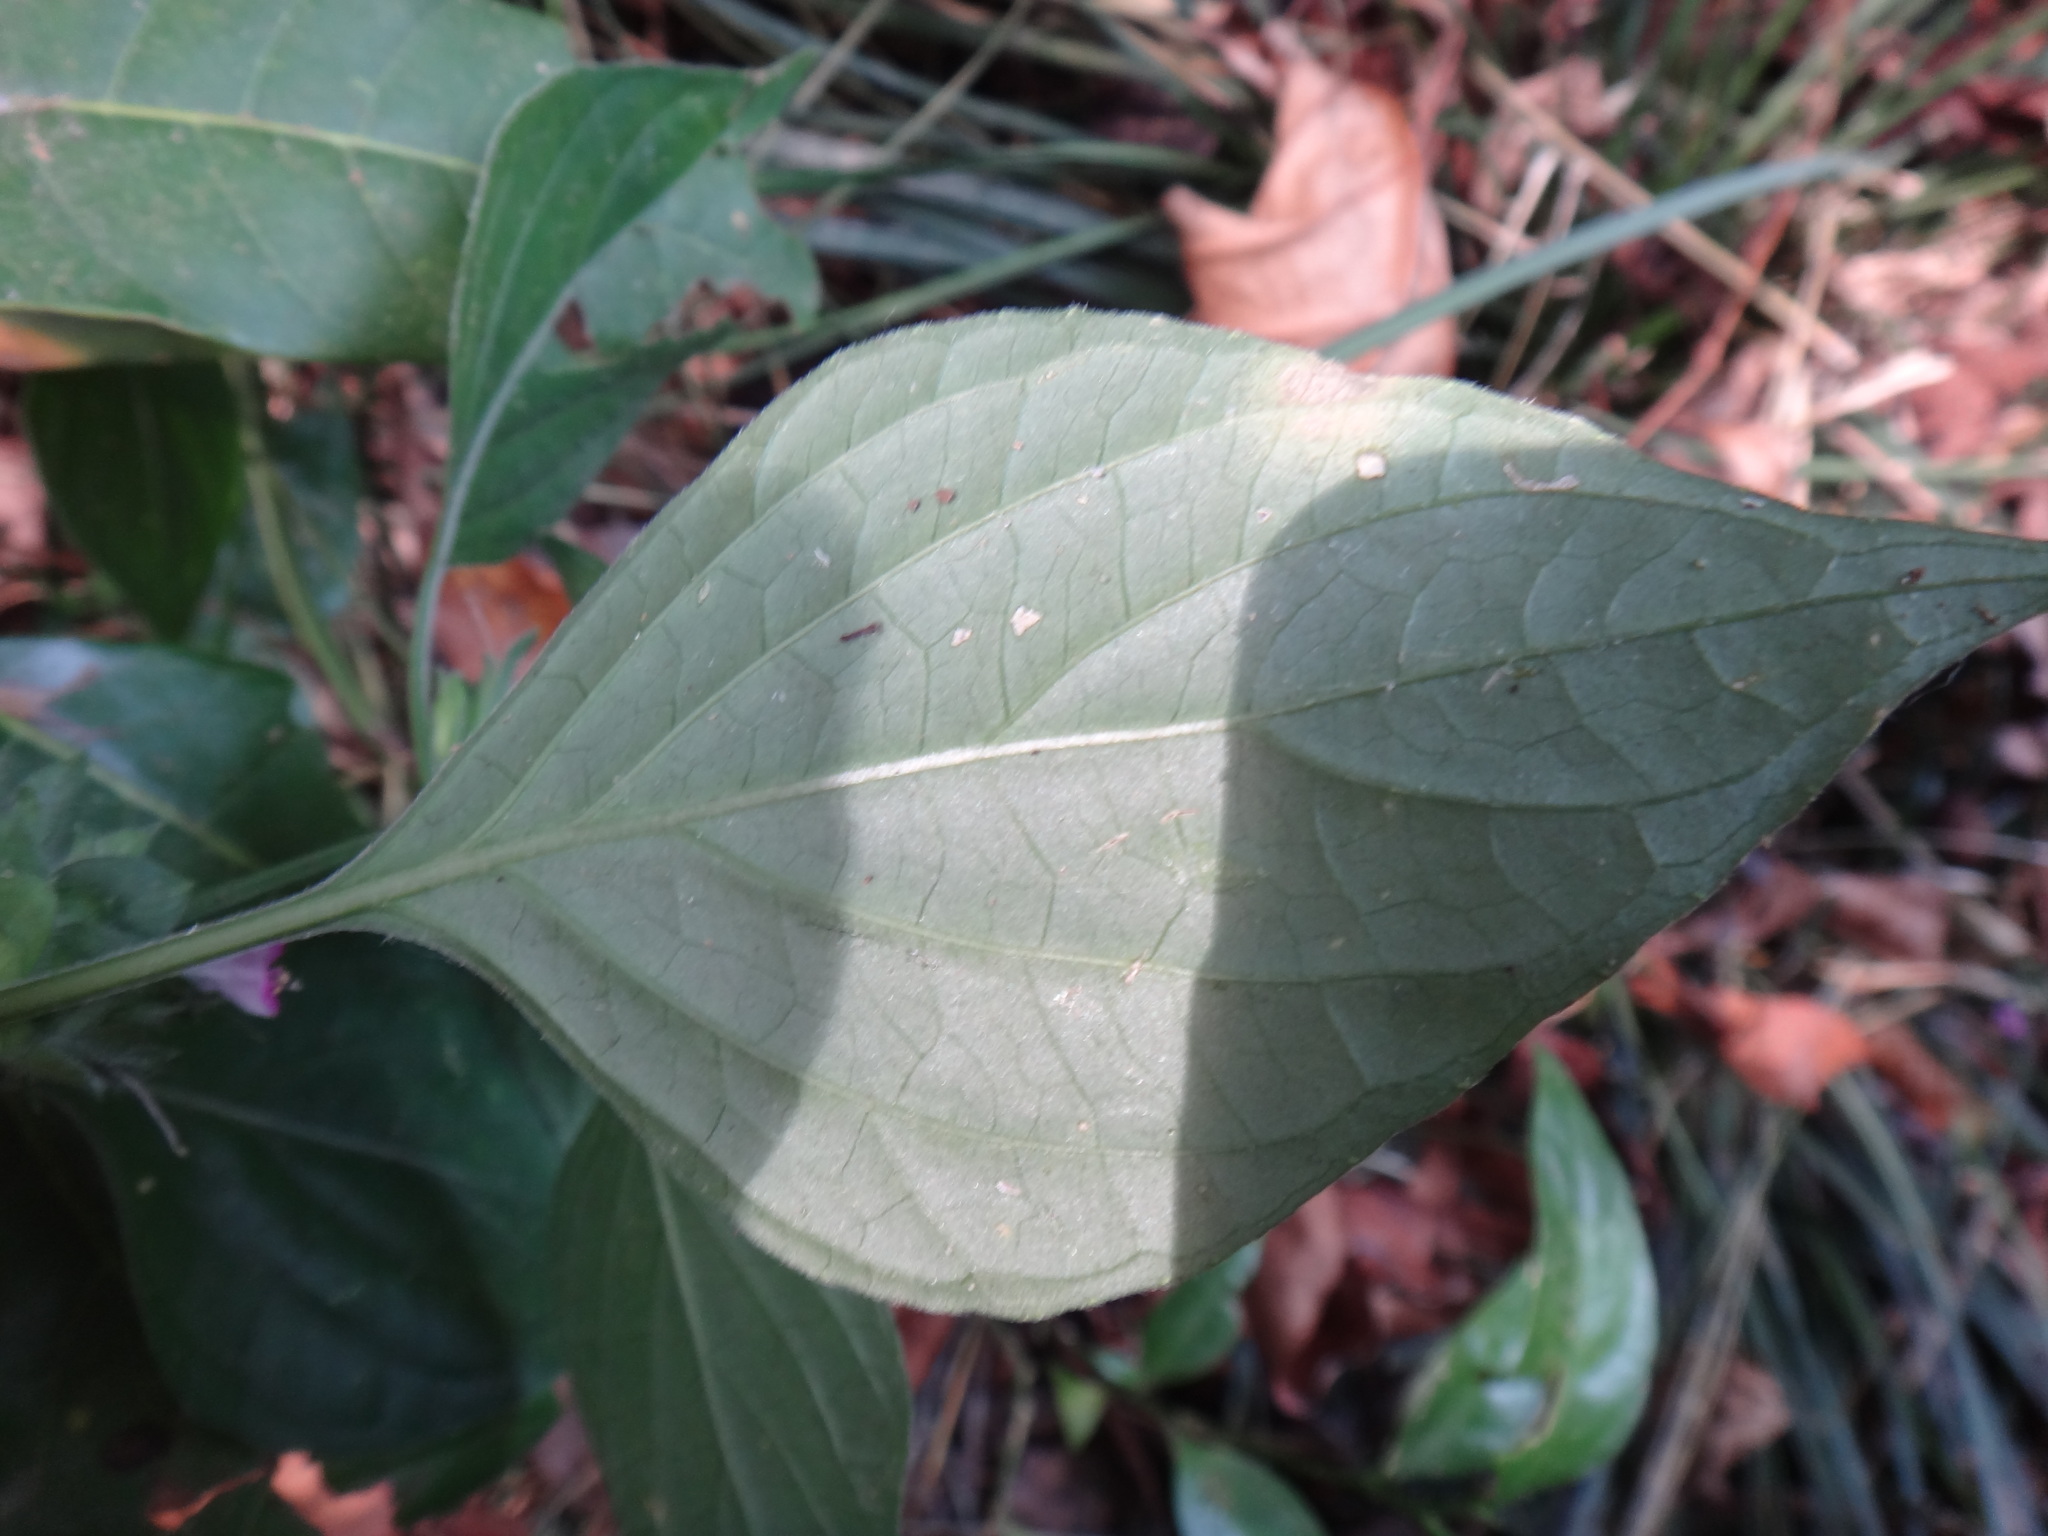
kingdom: Plantae
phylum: Tracheophyta
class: Magnoliopsida
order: Lamiales
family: Acanthaceae
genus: Dicliptera
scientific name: Dicliptera chinensis
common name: Chinese foldwing
